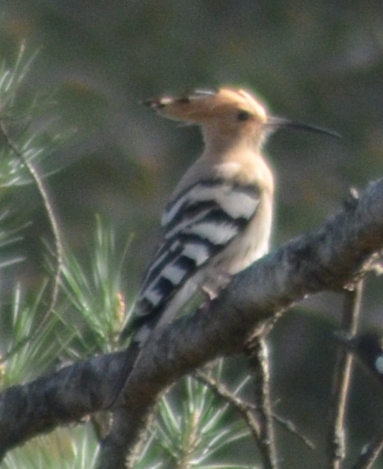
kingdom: Animalia
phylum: Chordata
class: Aves
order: Bucerotiformes
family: Upupidae
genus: Upupa
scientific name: Upupa epops
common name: Eurasian hoopoe
